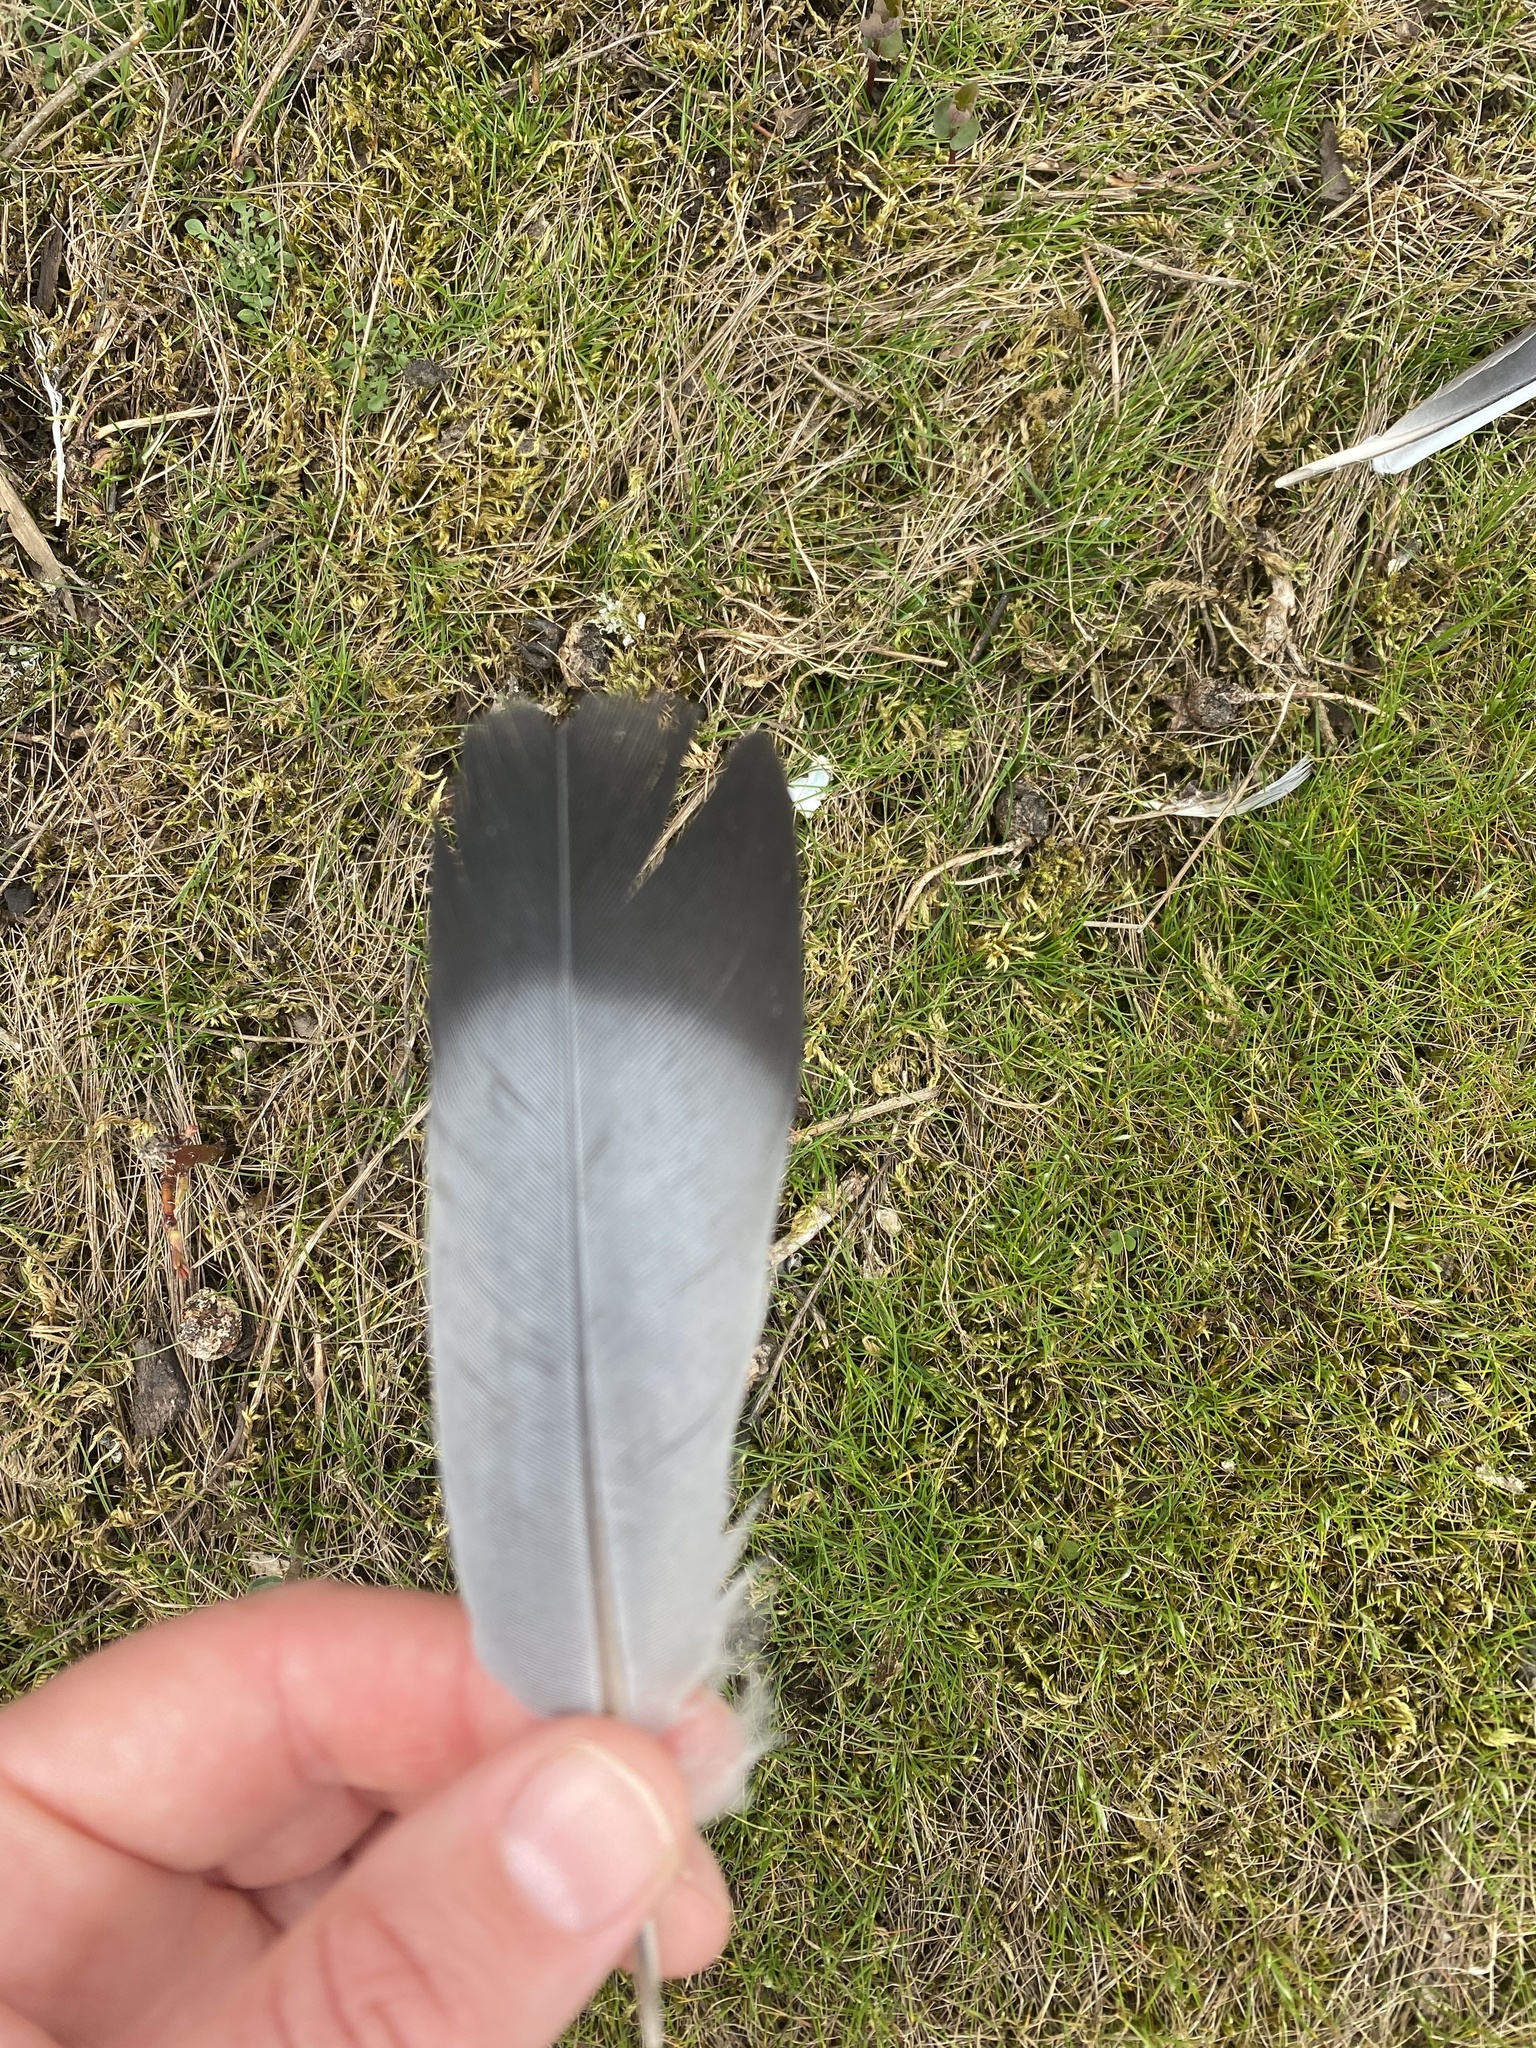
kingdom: Animalia
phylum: Chordata
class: Aves
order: Columbiformes
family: Columbidae
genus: Columba
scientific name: Columba livia
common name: Rock pigeon
